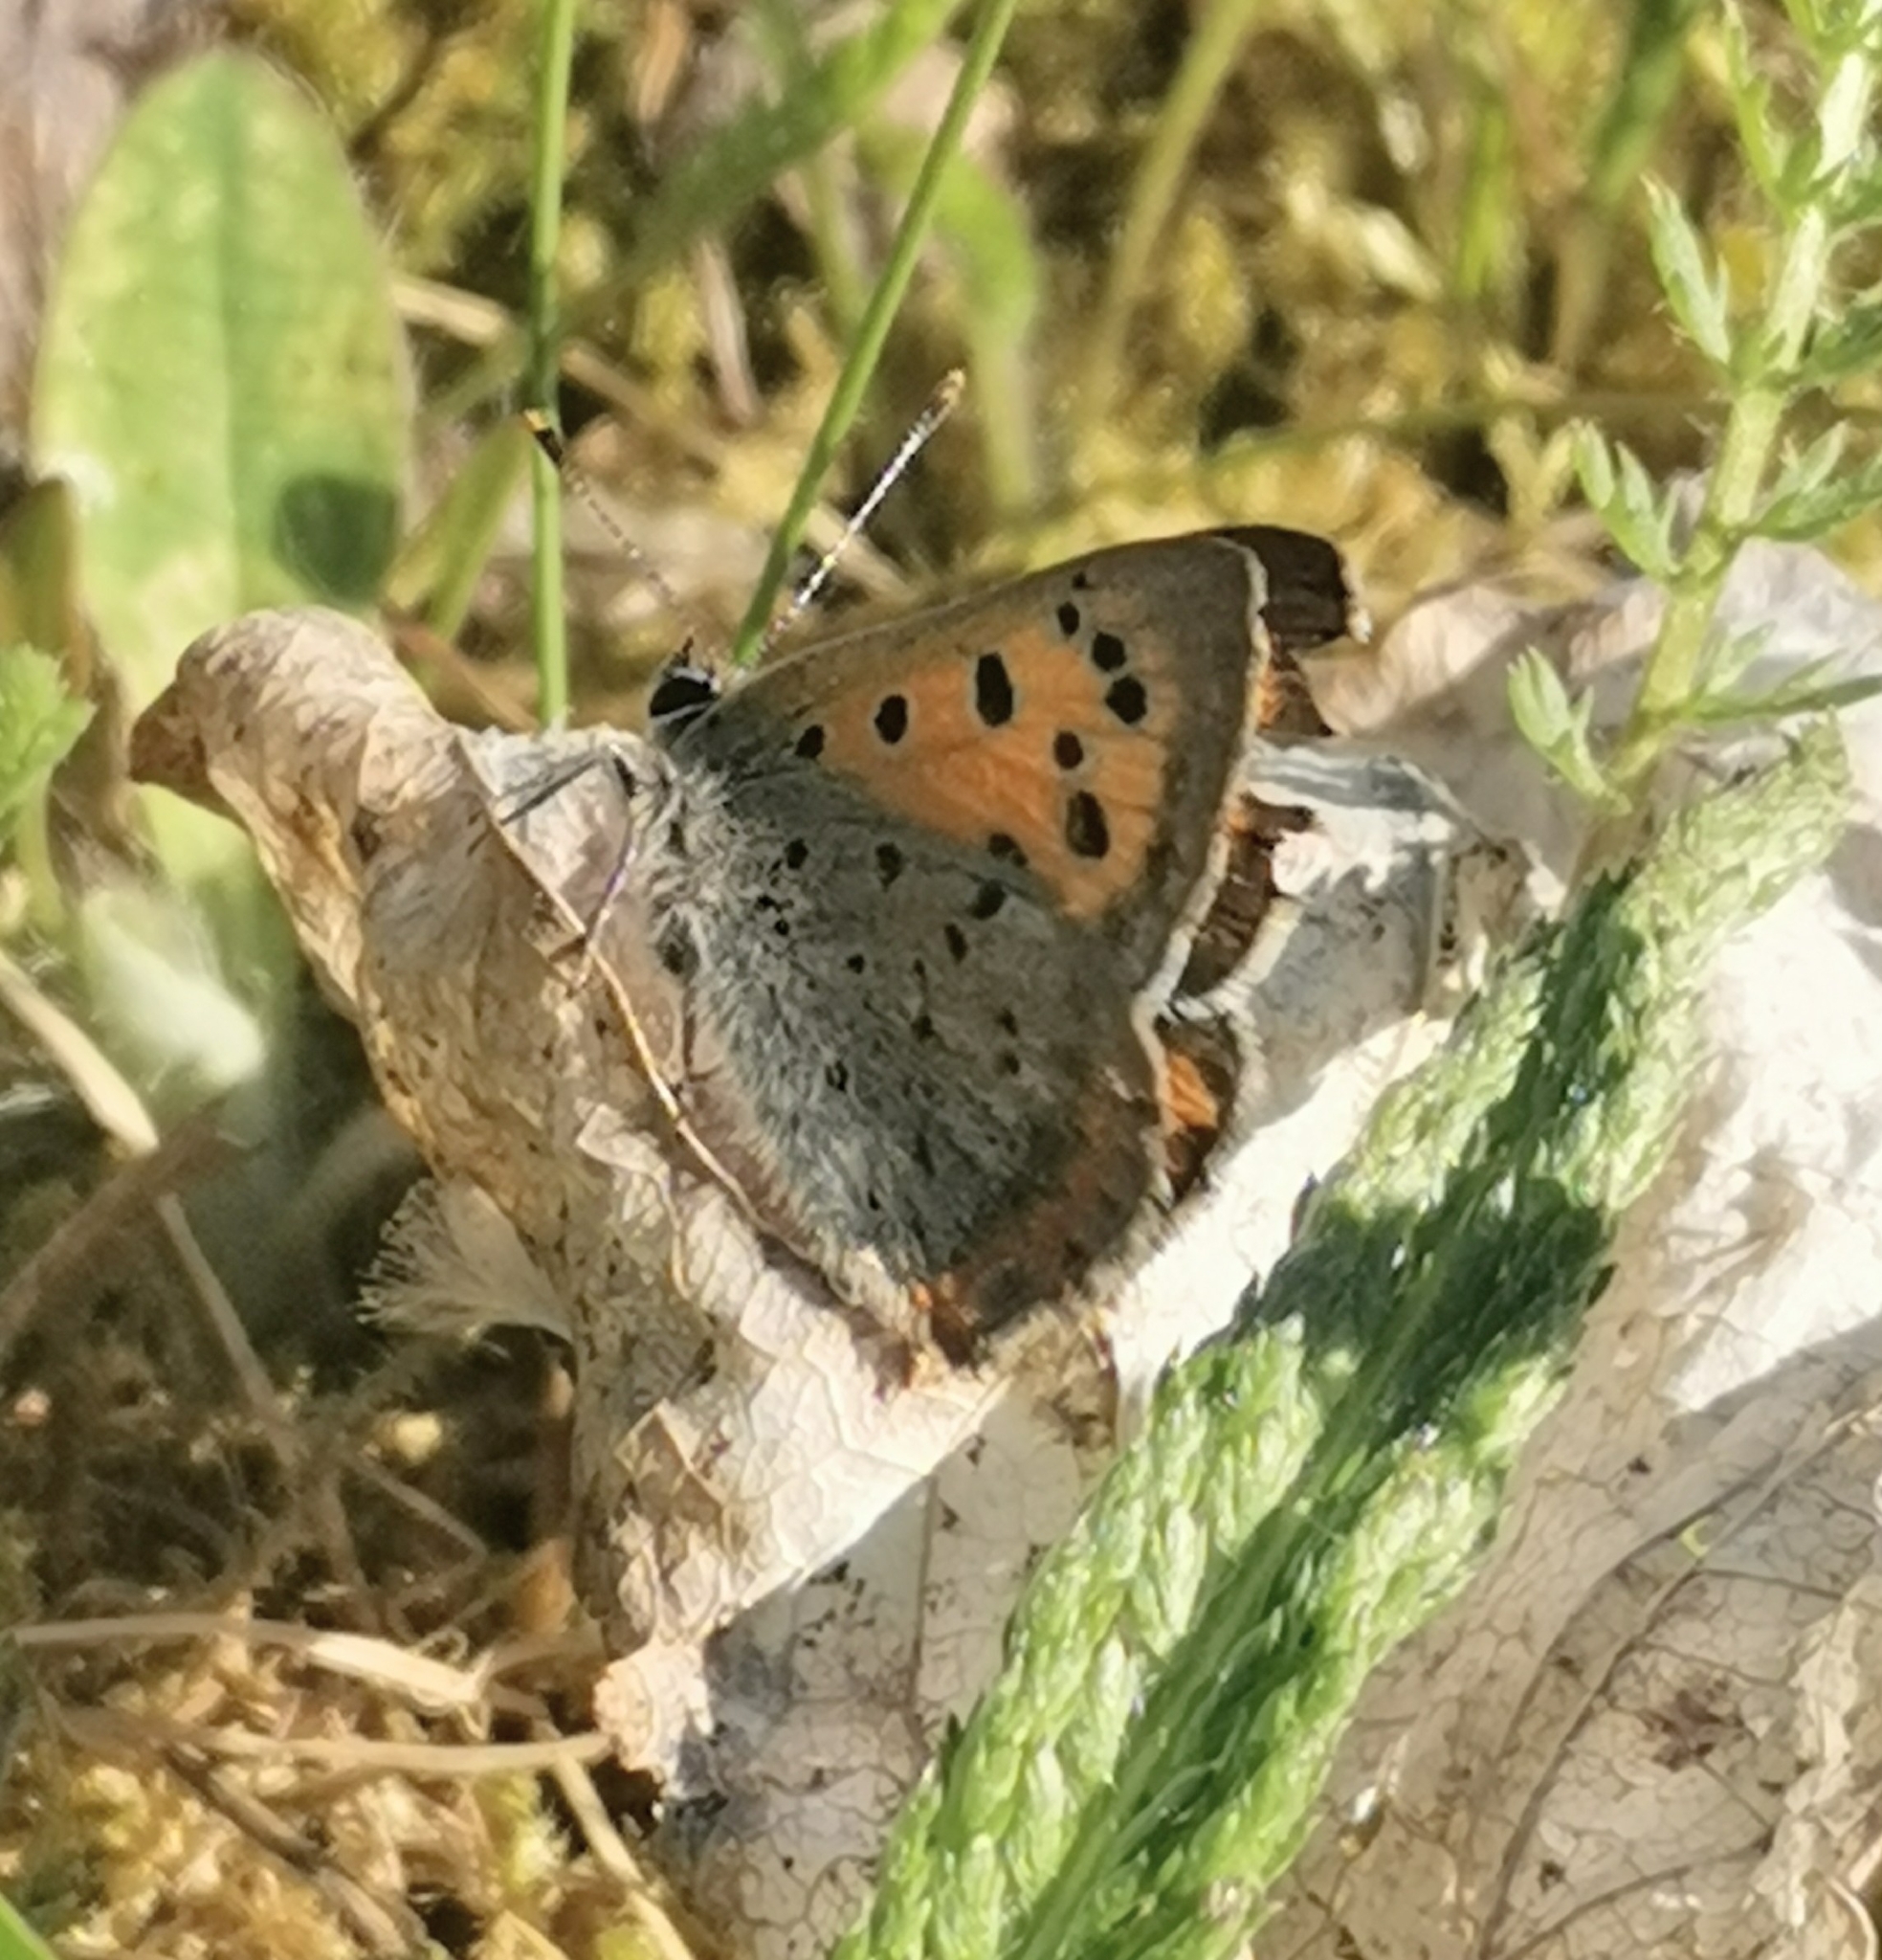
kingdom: Animalia
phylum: Arthropoda
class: Insecta
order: Lepidoptera
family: Lycaenidae
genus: Lycaena
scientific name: Lycaena phlaeas
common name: Small copper
